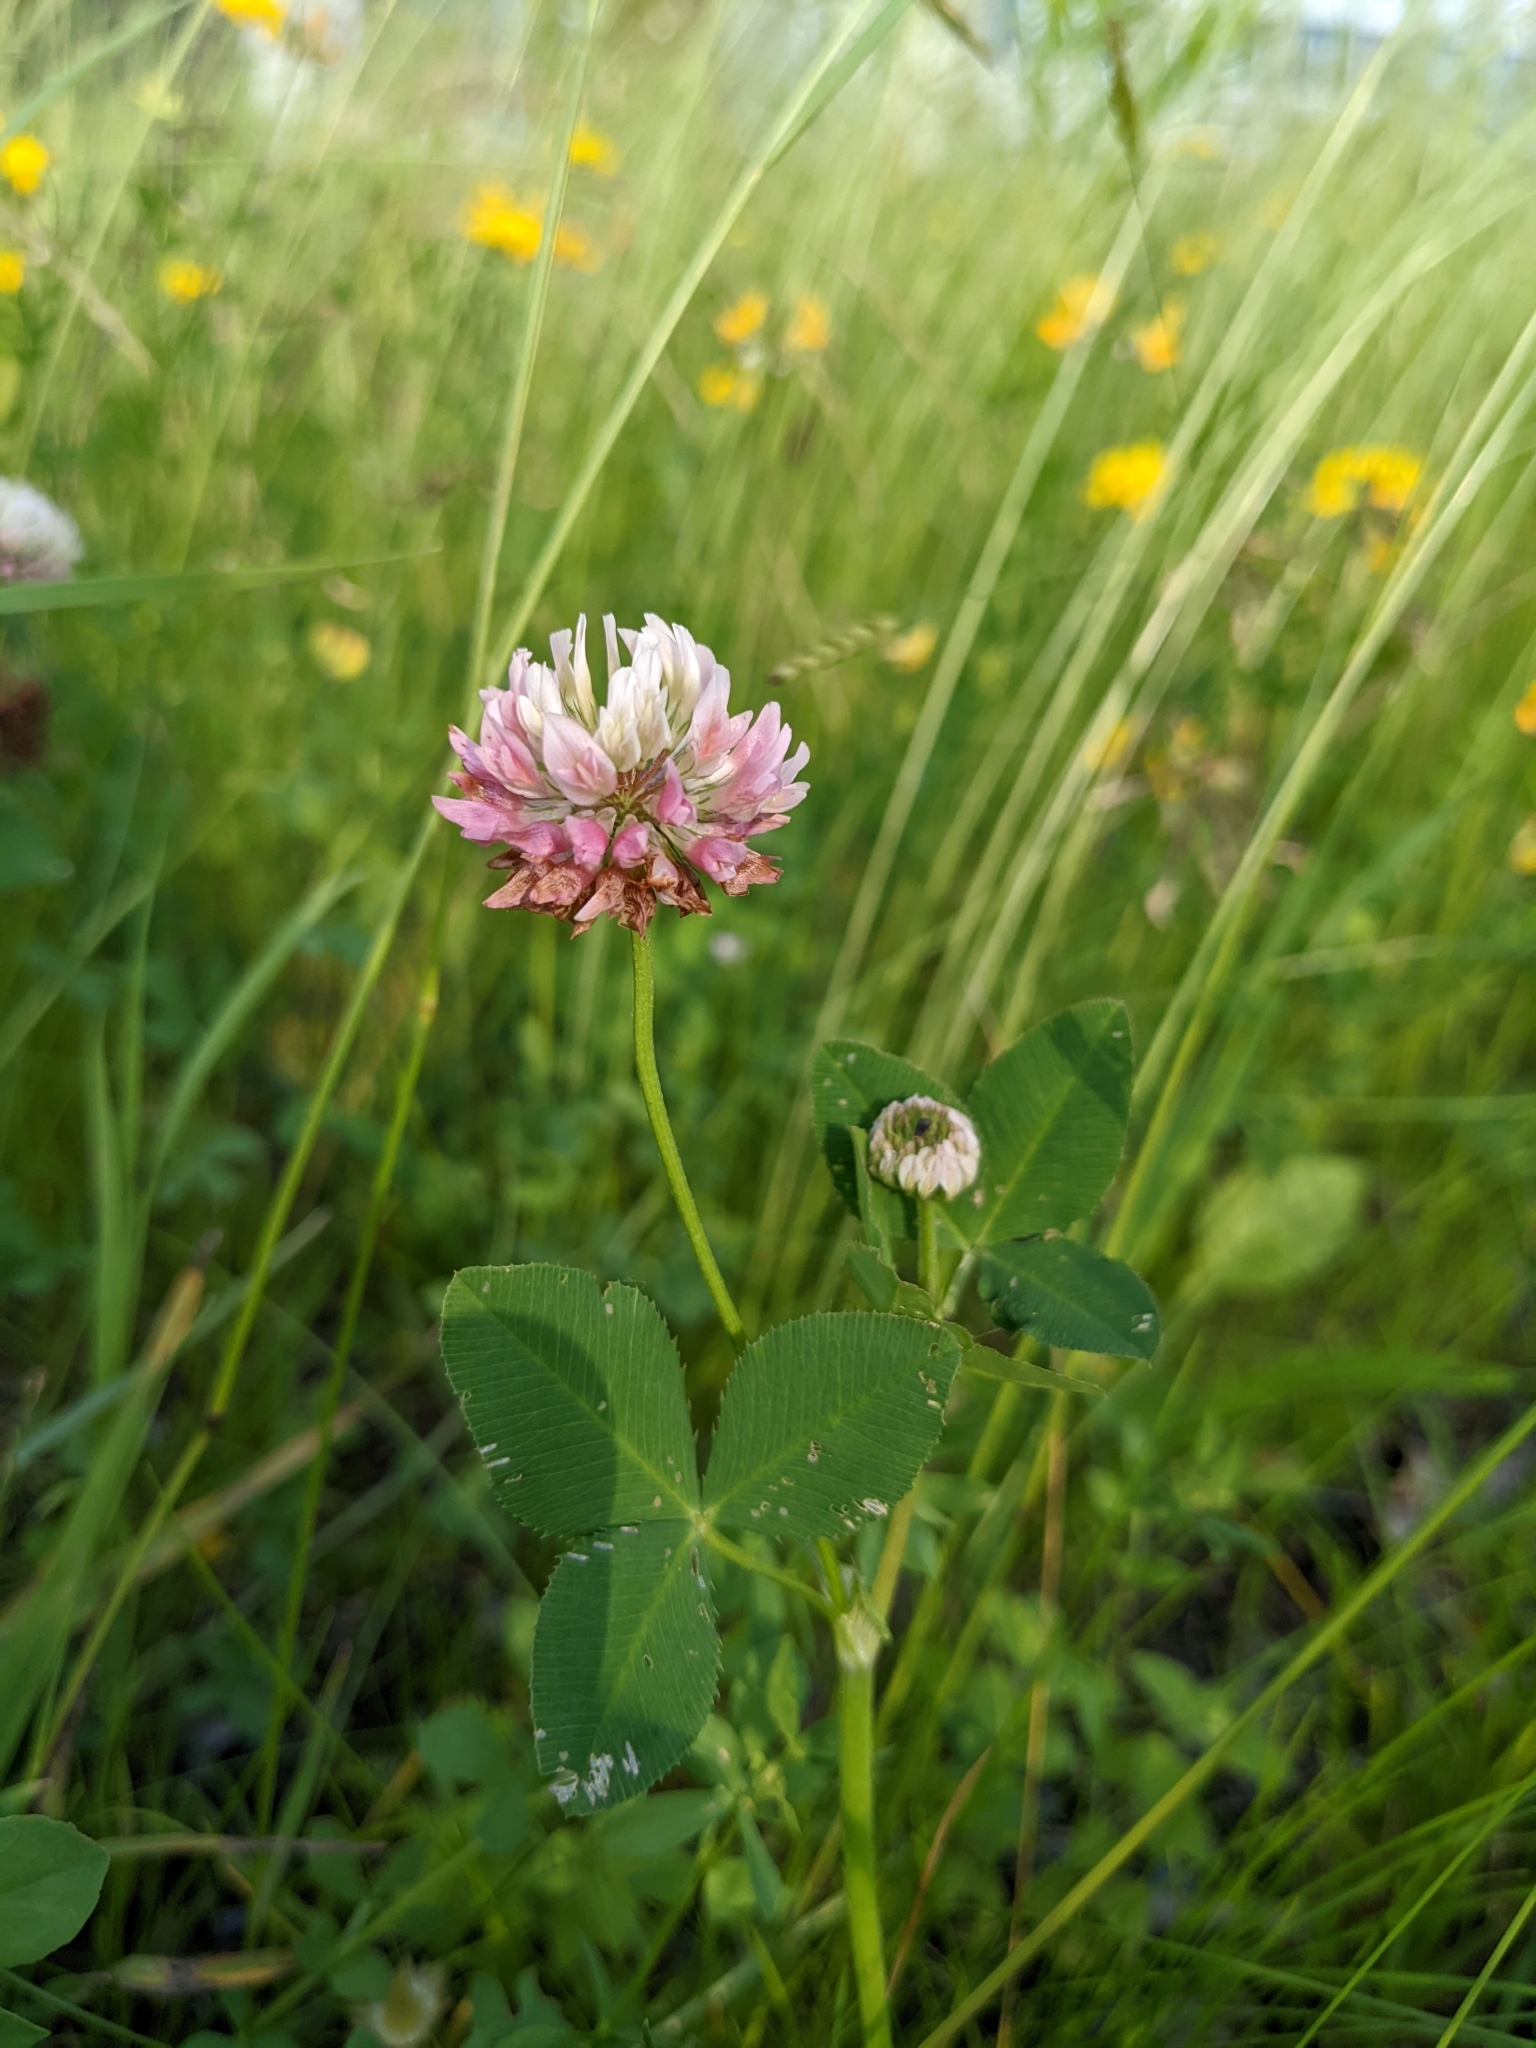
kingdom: Plantae
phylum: Tracheophyta
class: Magnoliopsida
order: Fabales
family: Fabaceae
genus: Trifolium
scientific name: Trifolium hybridum
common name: Alsike clover
